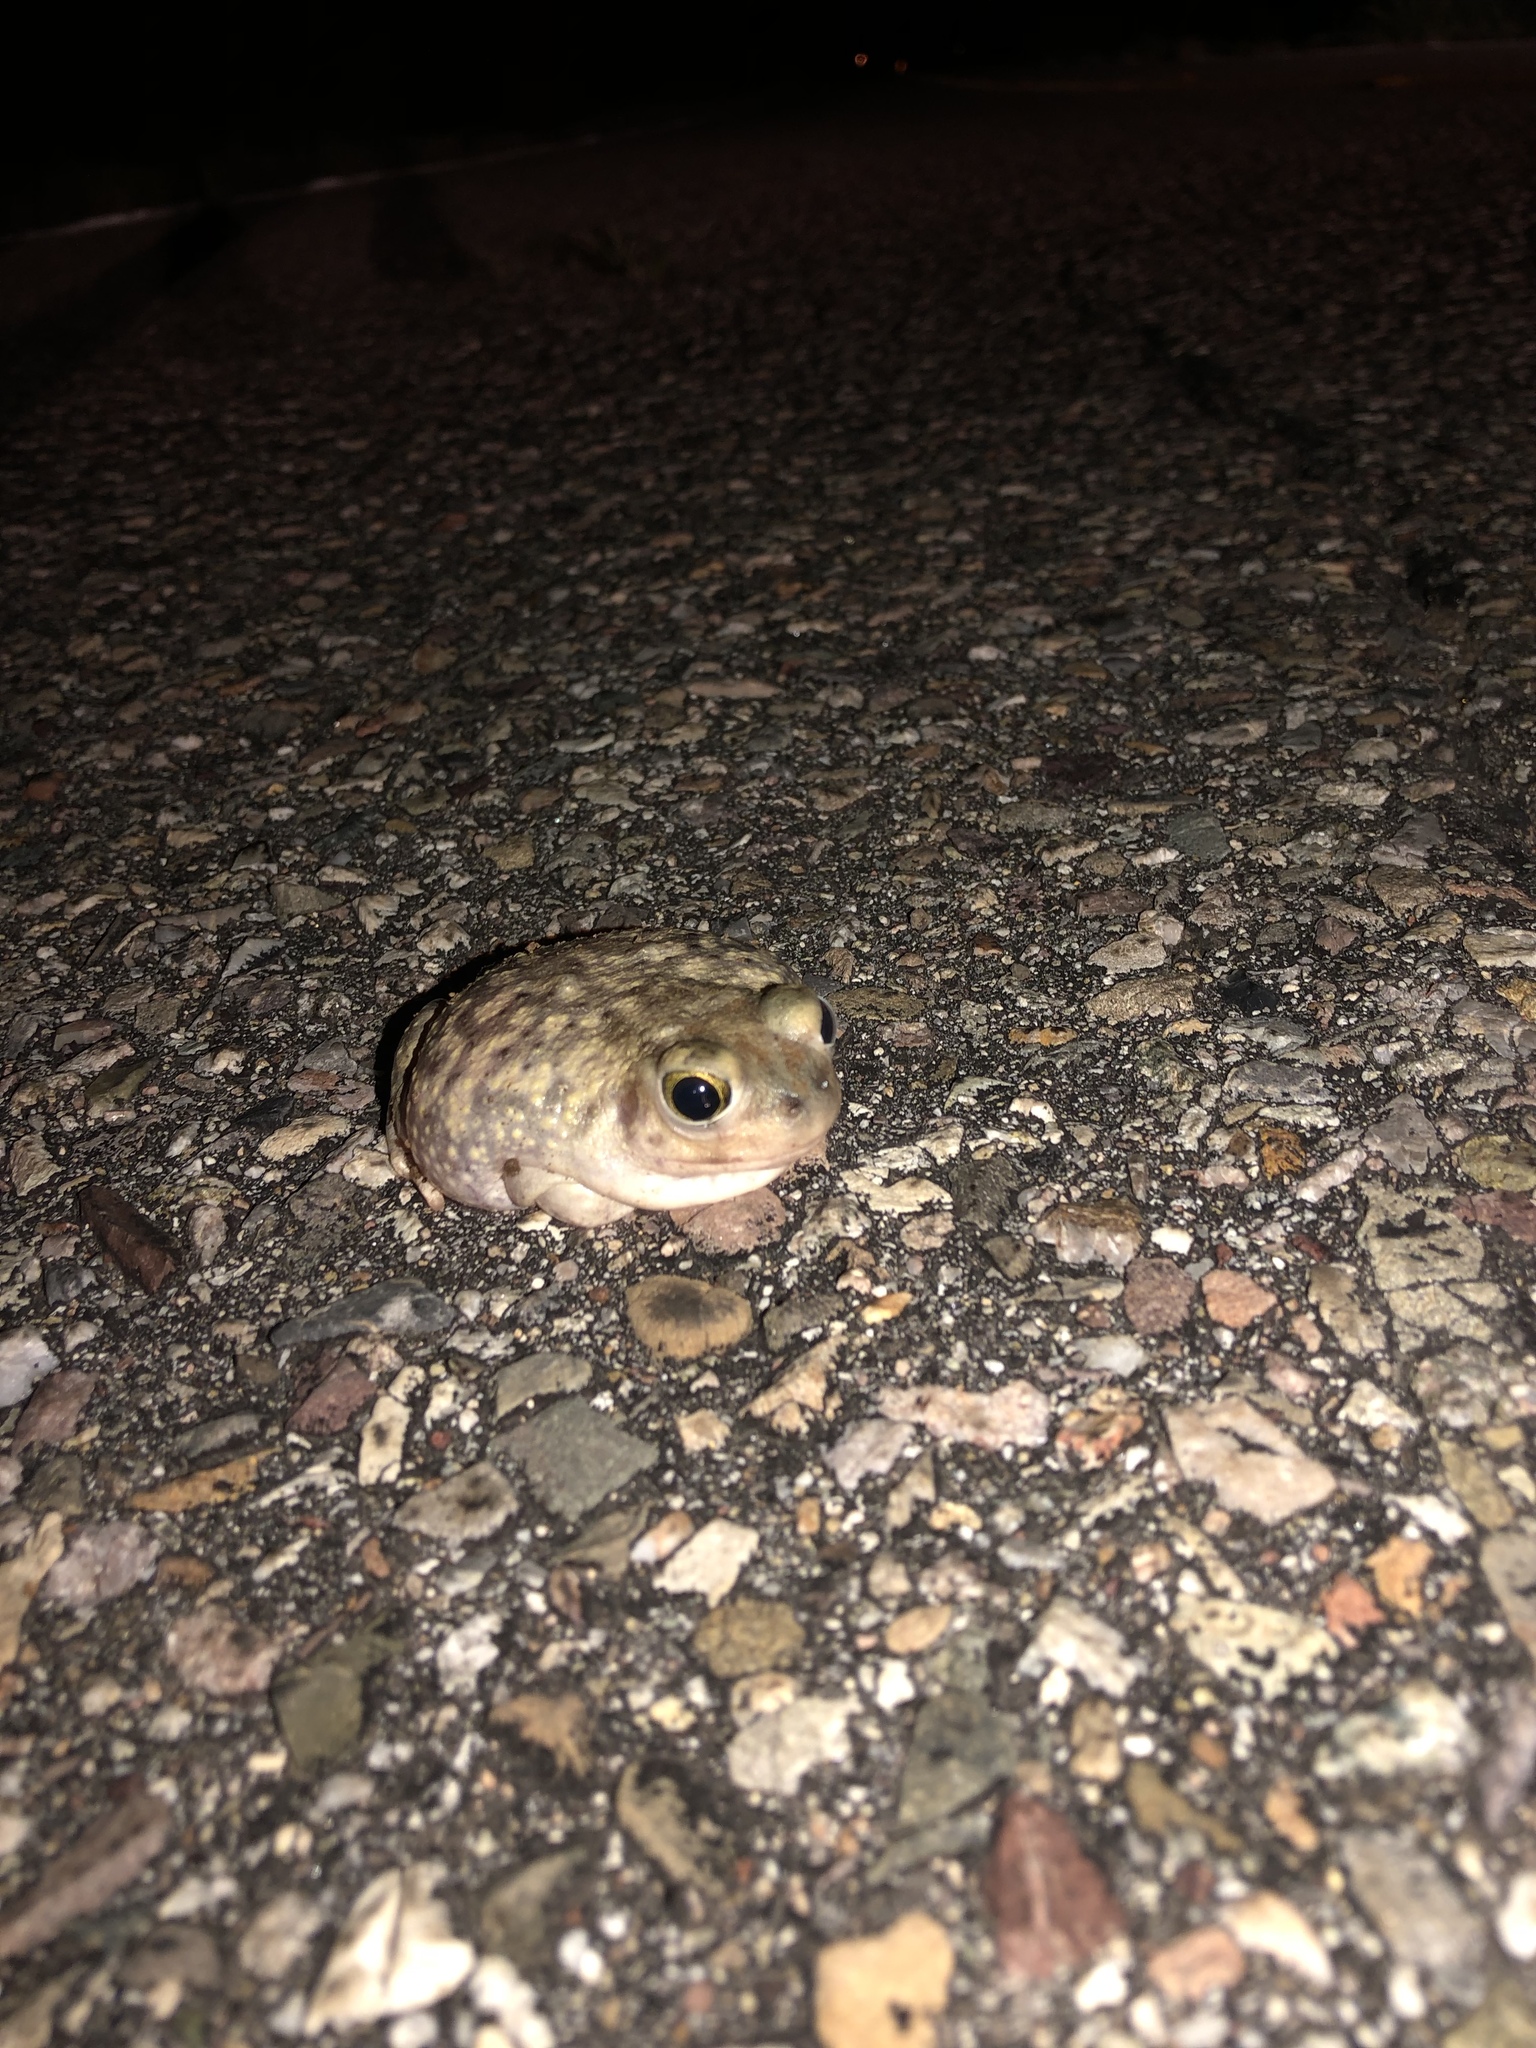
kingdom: Animalia
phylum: Chordata
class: Amphibia
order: Anura
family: Scaphiopodidae
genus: Scaphiopus
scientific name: Scaphiopus couchii
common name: Couch's spadefoot toad
